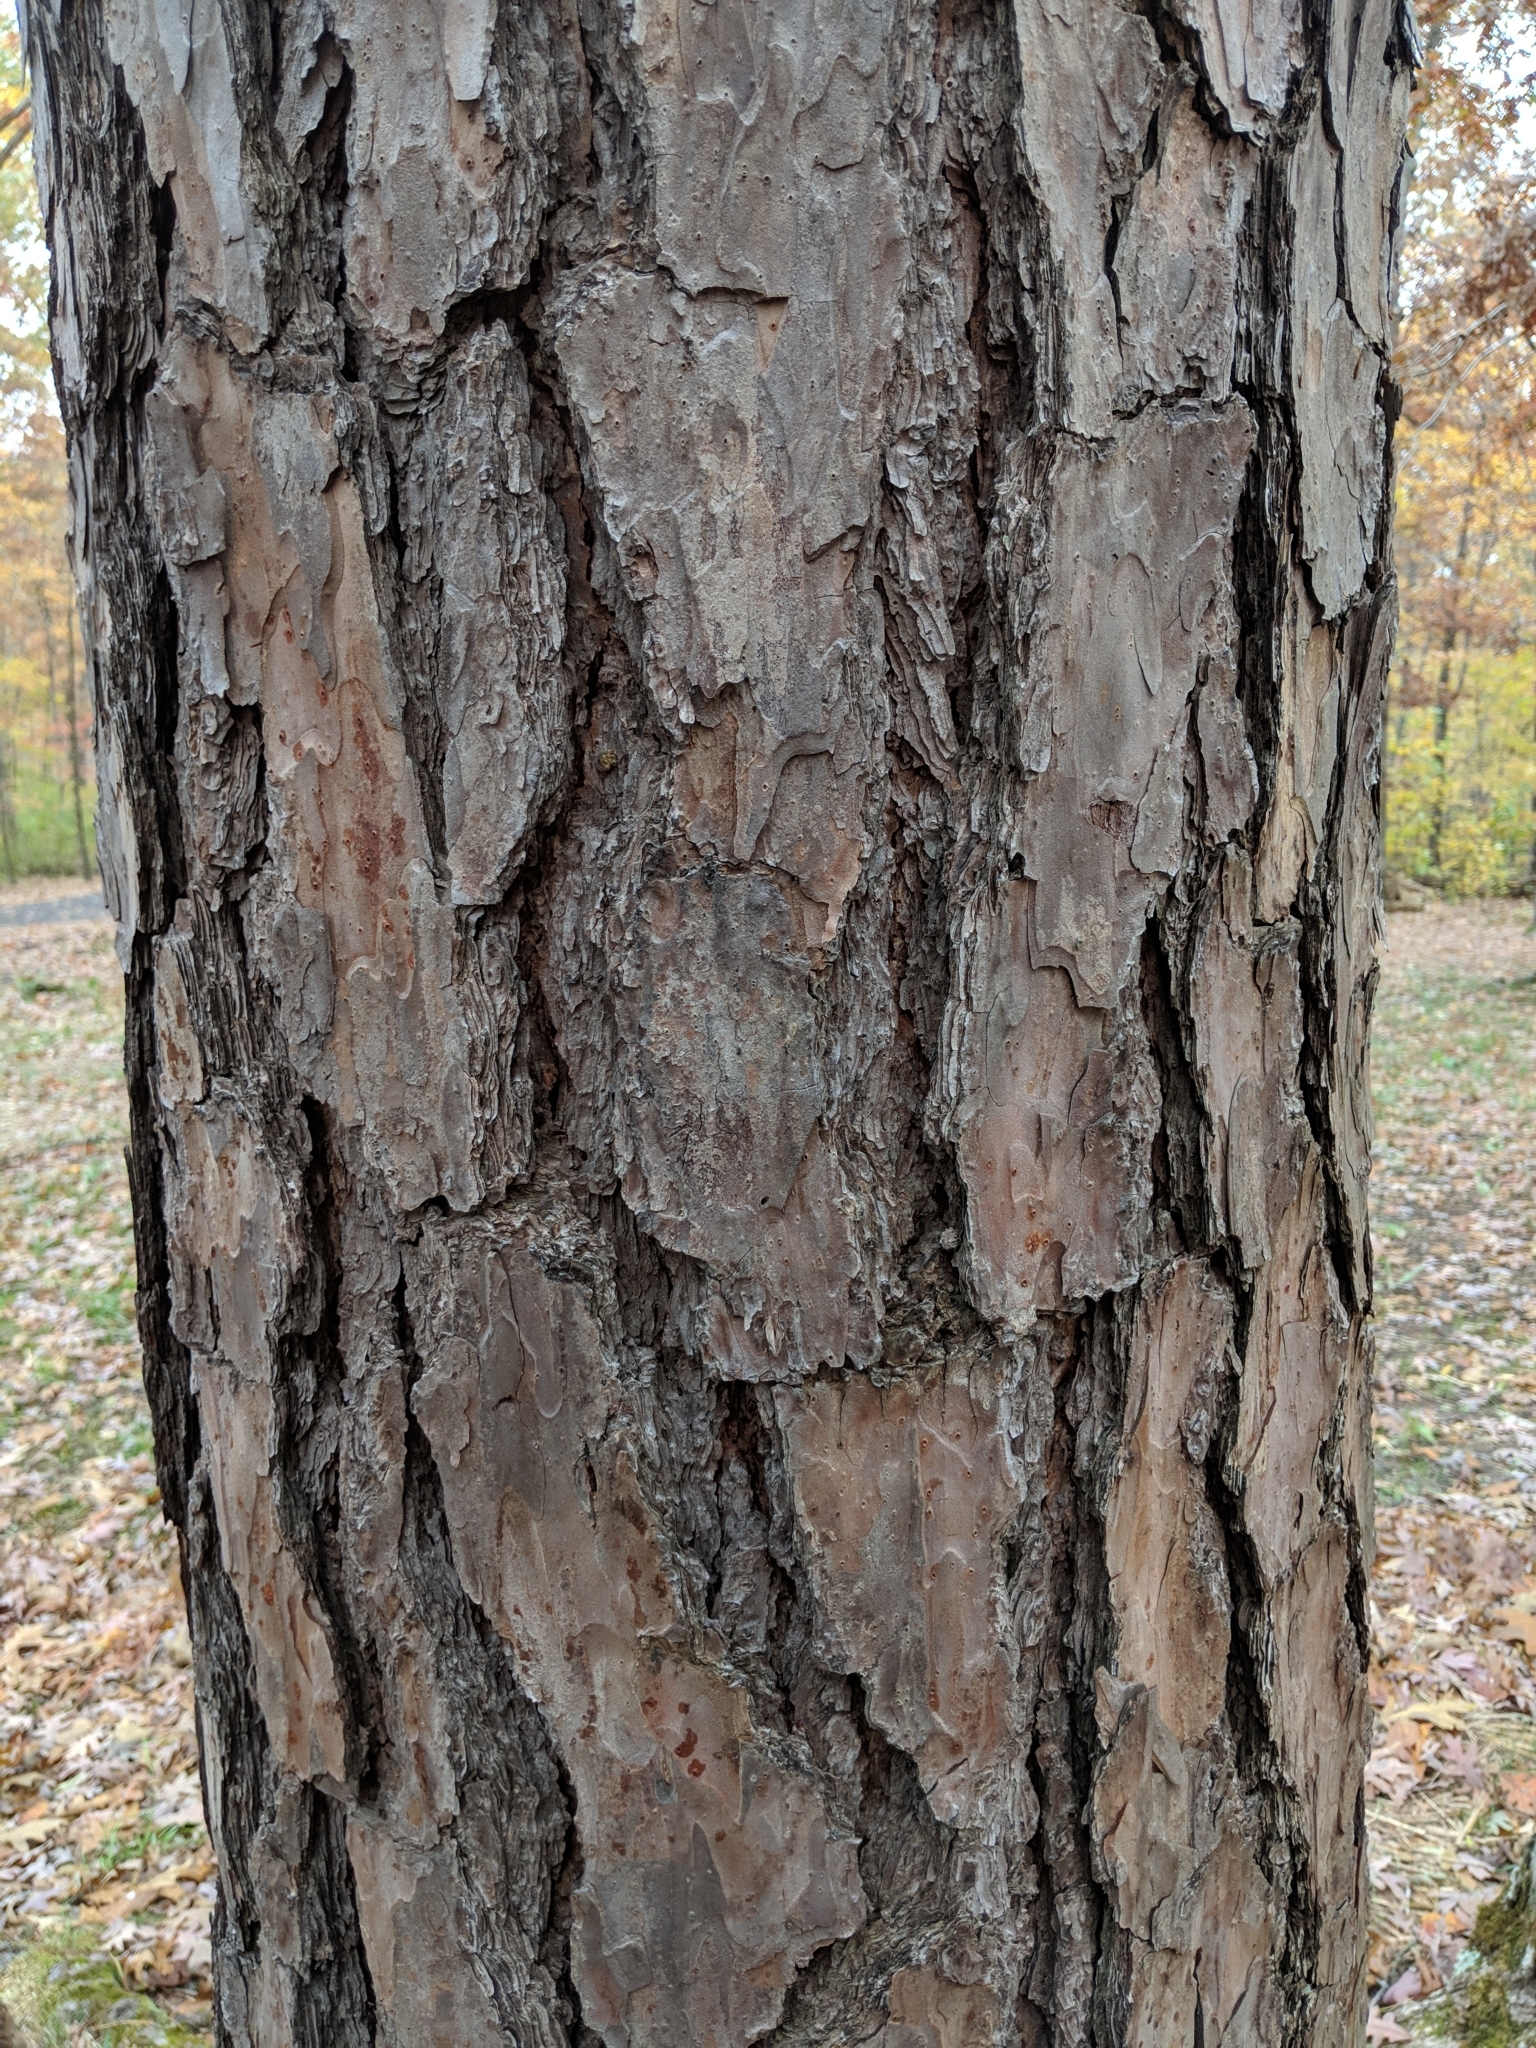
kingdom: Plantae
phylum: Tracheophyta
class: Pinopsida
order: Pinales
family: Pinaceae
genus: Pinus
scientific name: Pinus echinata
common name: Shortleaf pine
